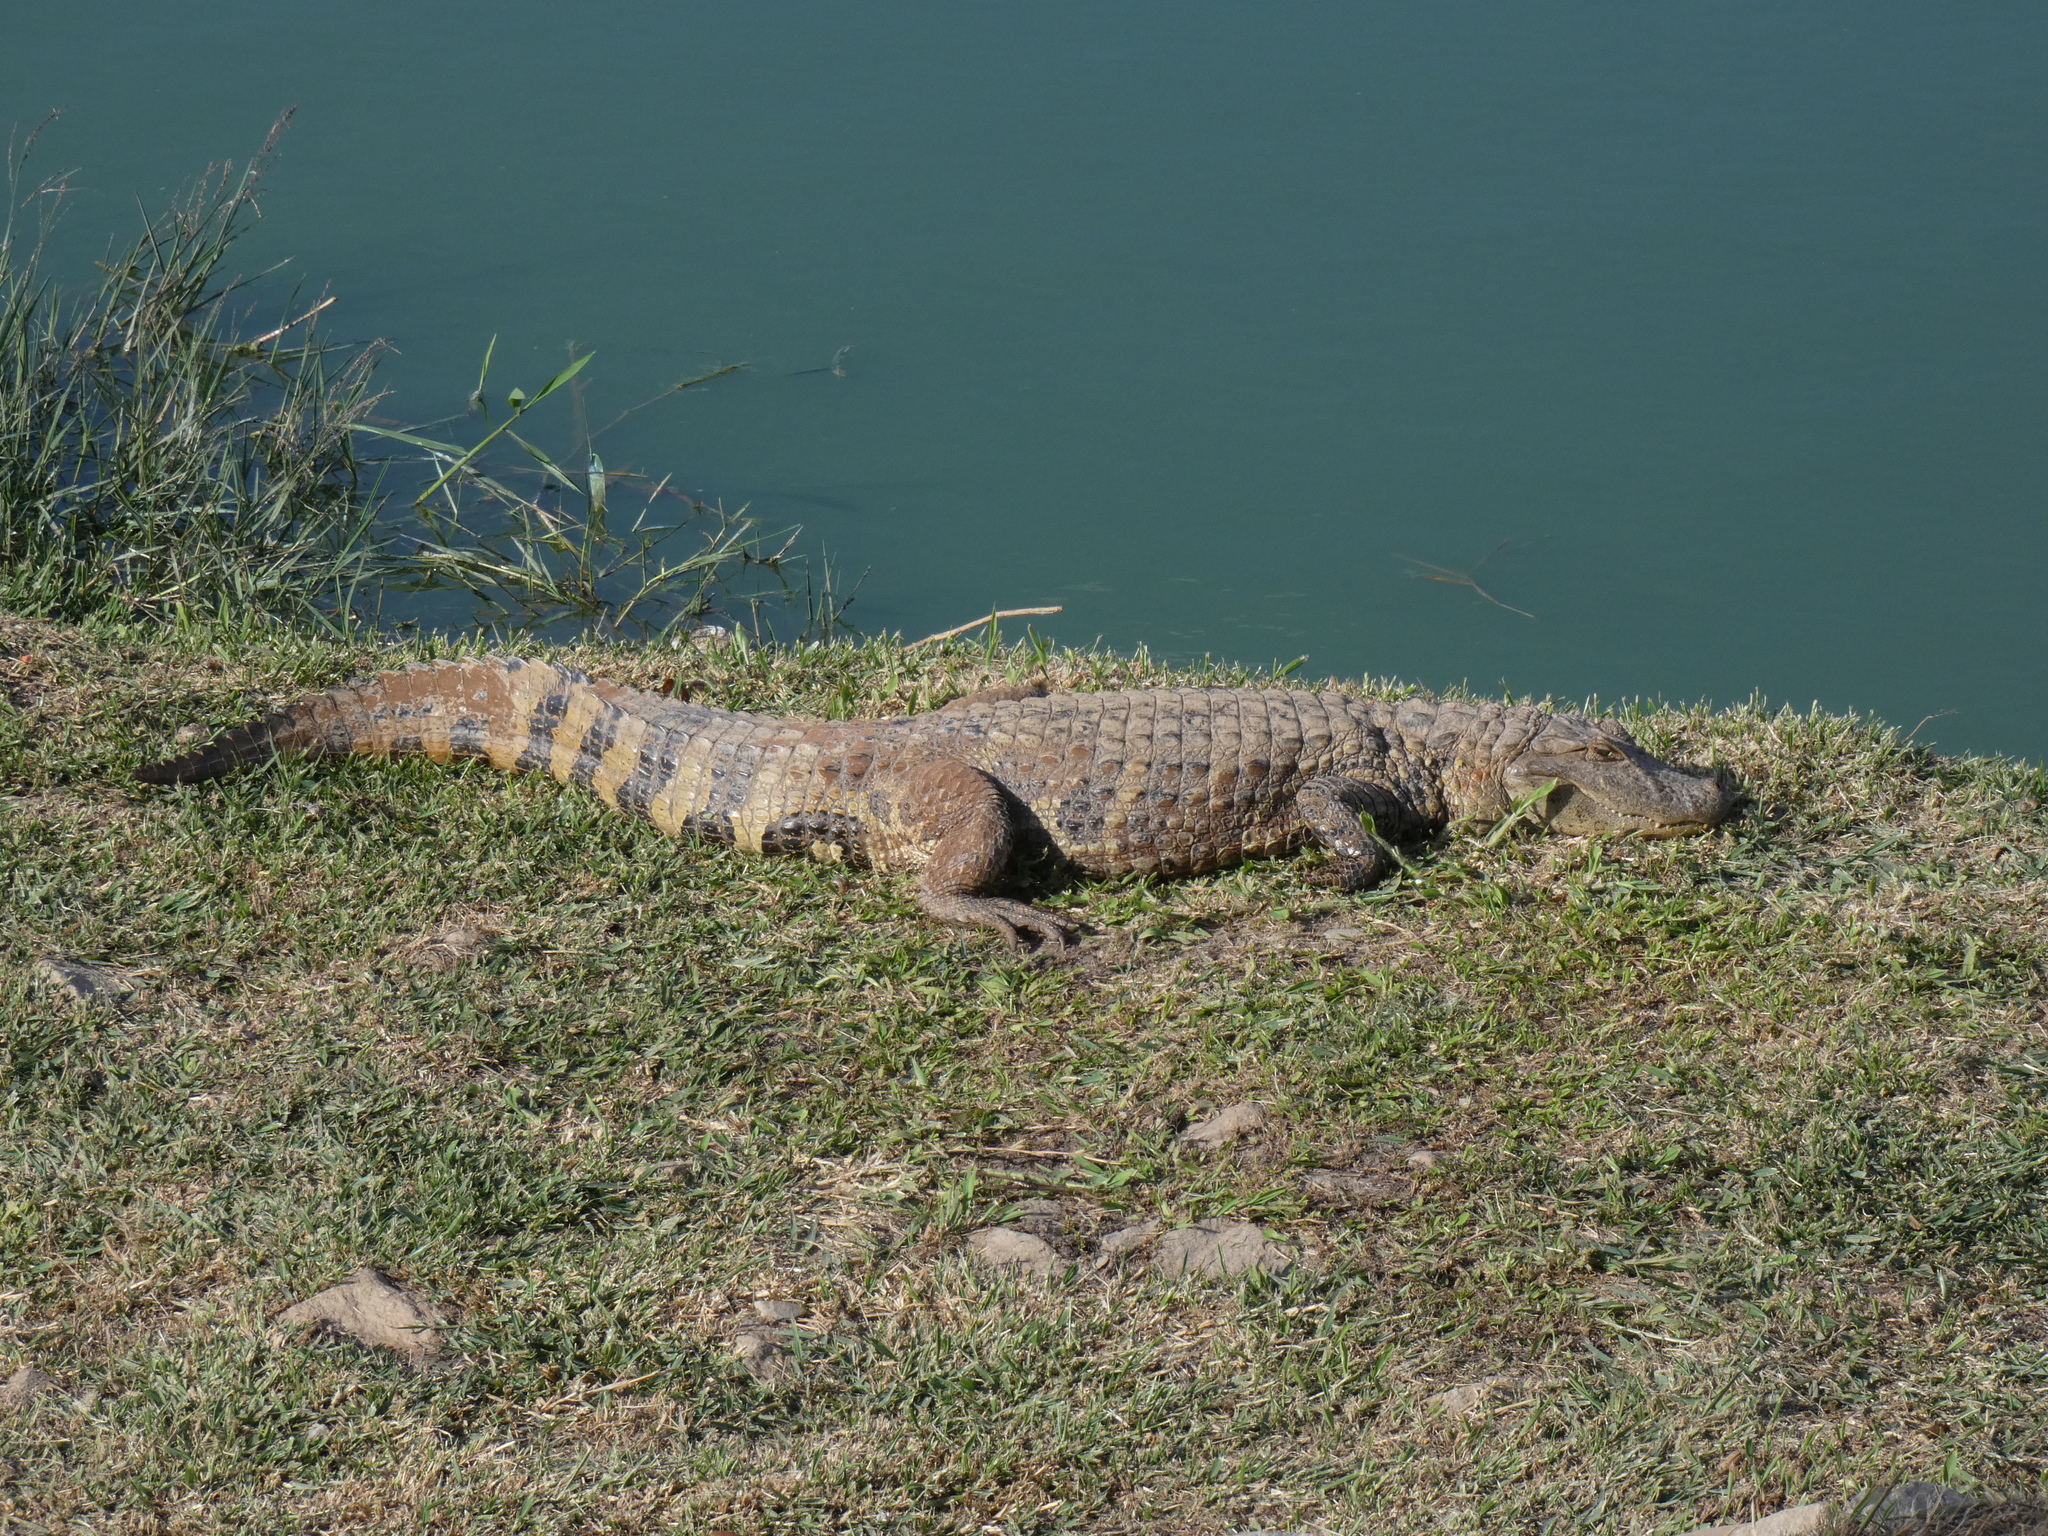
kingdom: Animalia
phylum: Chordata
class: Crocodylia
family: Alligatoridae
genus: Caiman
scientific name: Caiman latirostris
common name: Broad-snouted caiman
